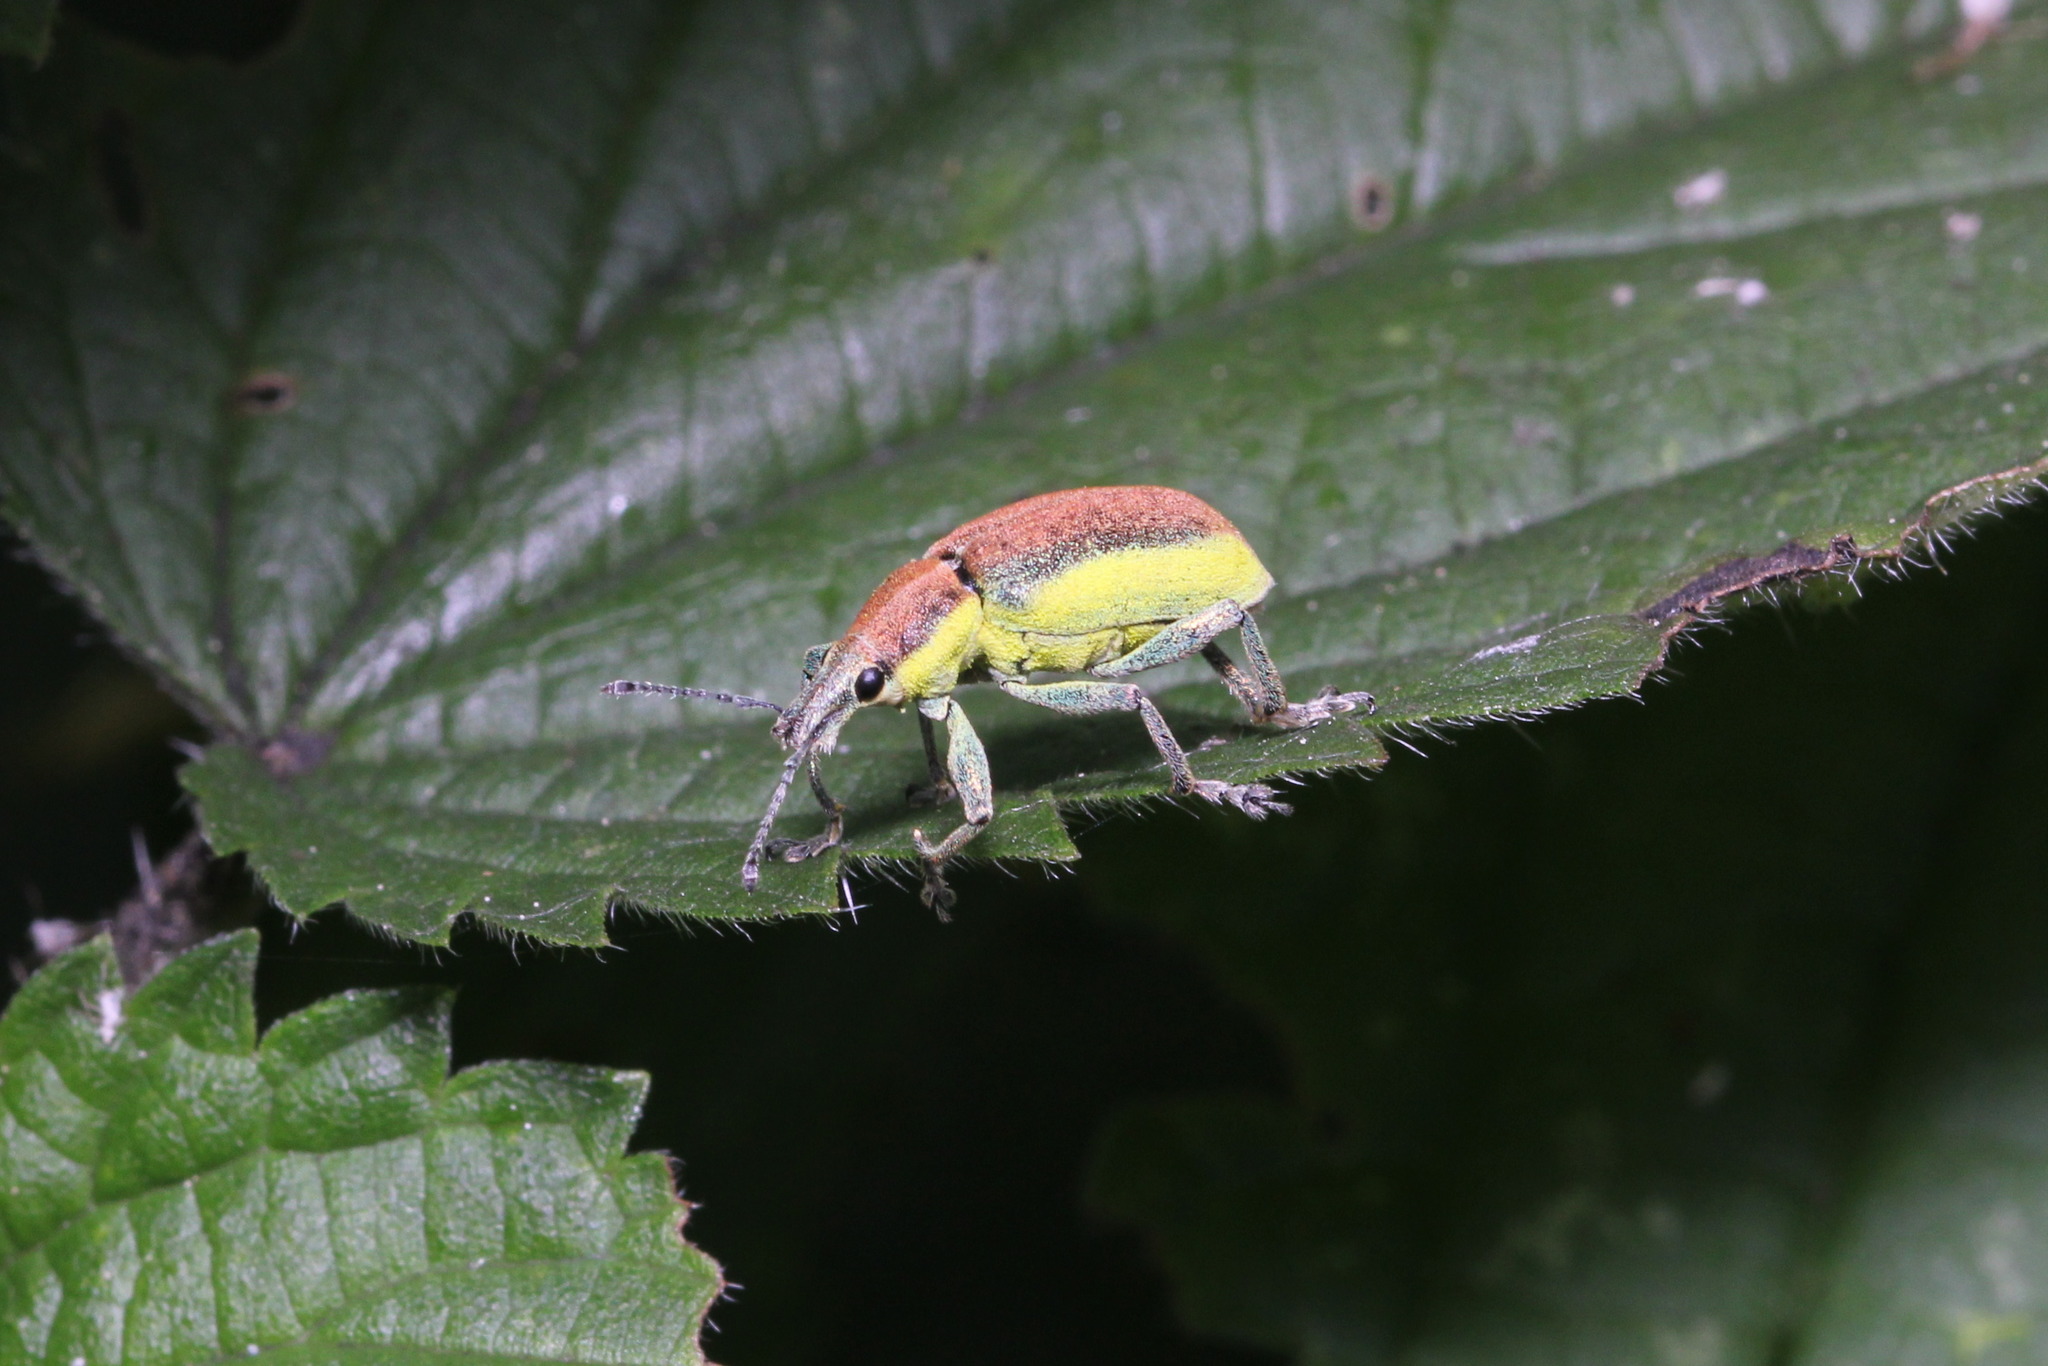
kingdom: Animalia
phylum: Arthropoda
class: Insecta
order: Coleoptera
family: Curculionidae
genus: Chlorophanus
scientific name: Chlorophanus flavescens
